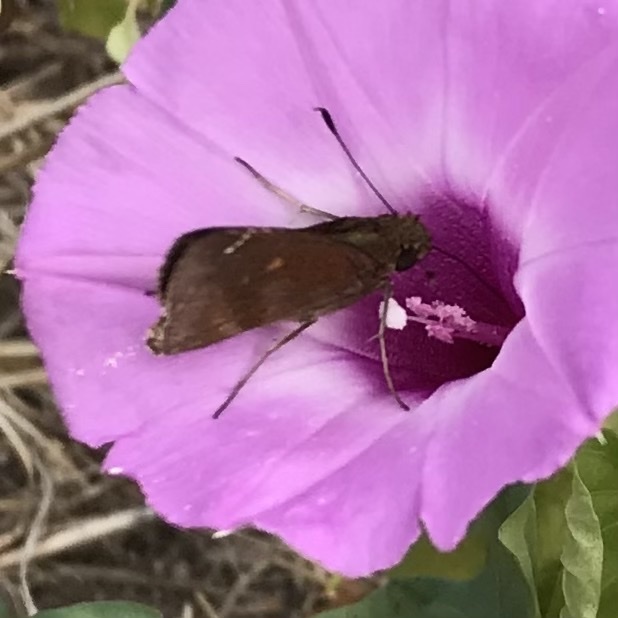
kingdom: Animalia
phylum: Arthropoda
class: Insecta
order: Lepidoptera
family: Hesperiidae
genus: Lerema
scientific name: Lerema accius
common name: Clouded skipper
